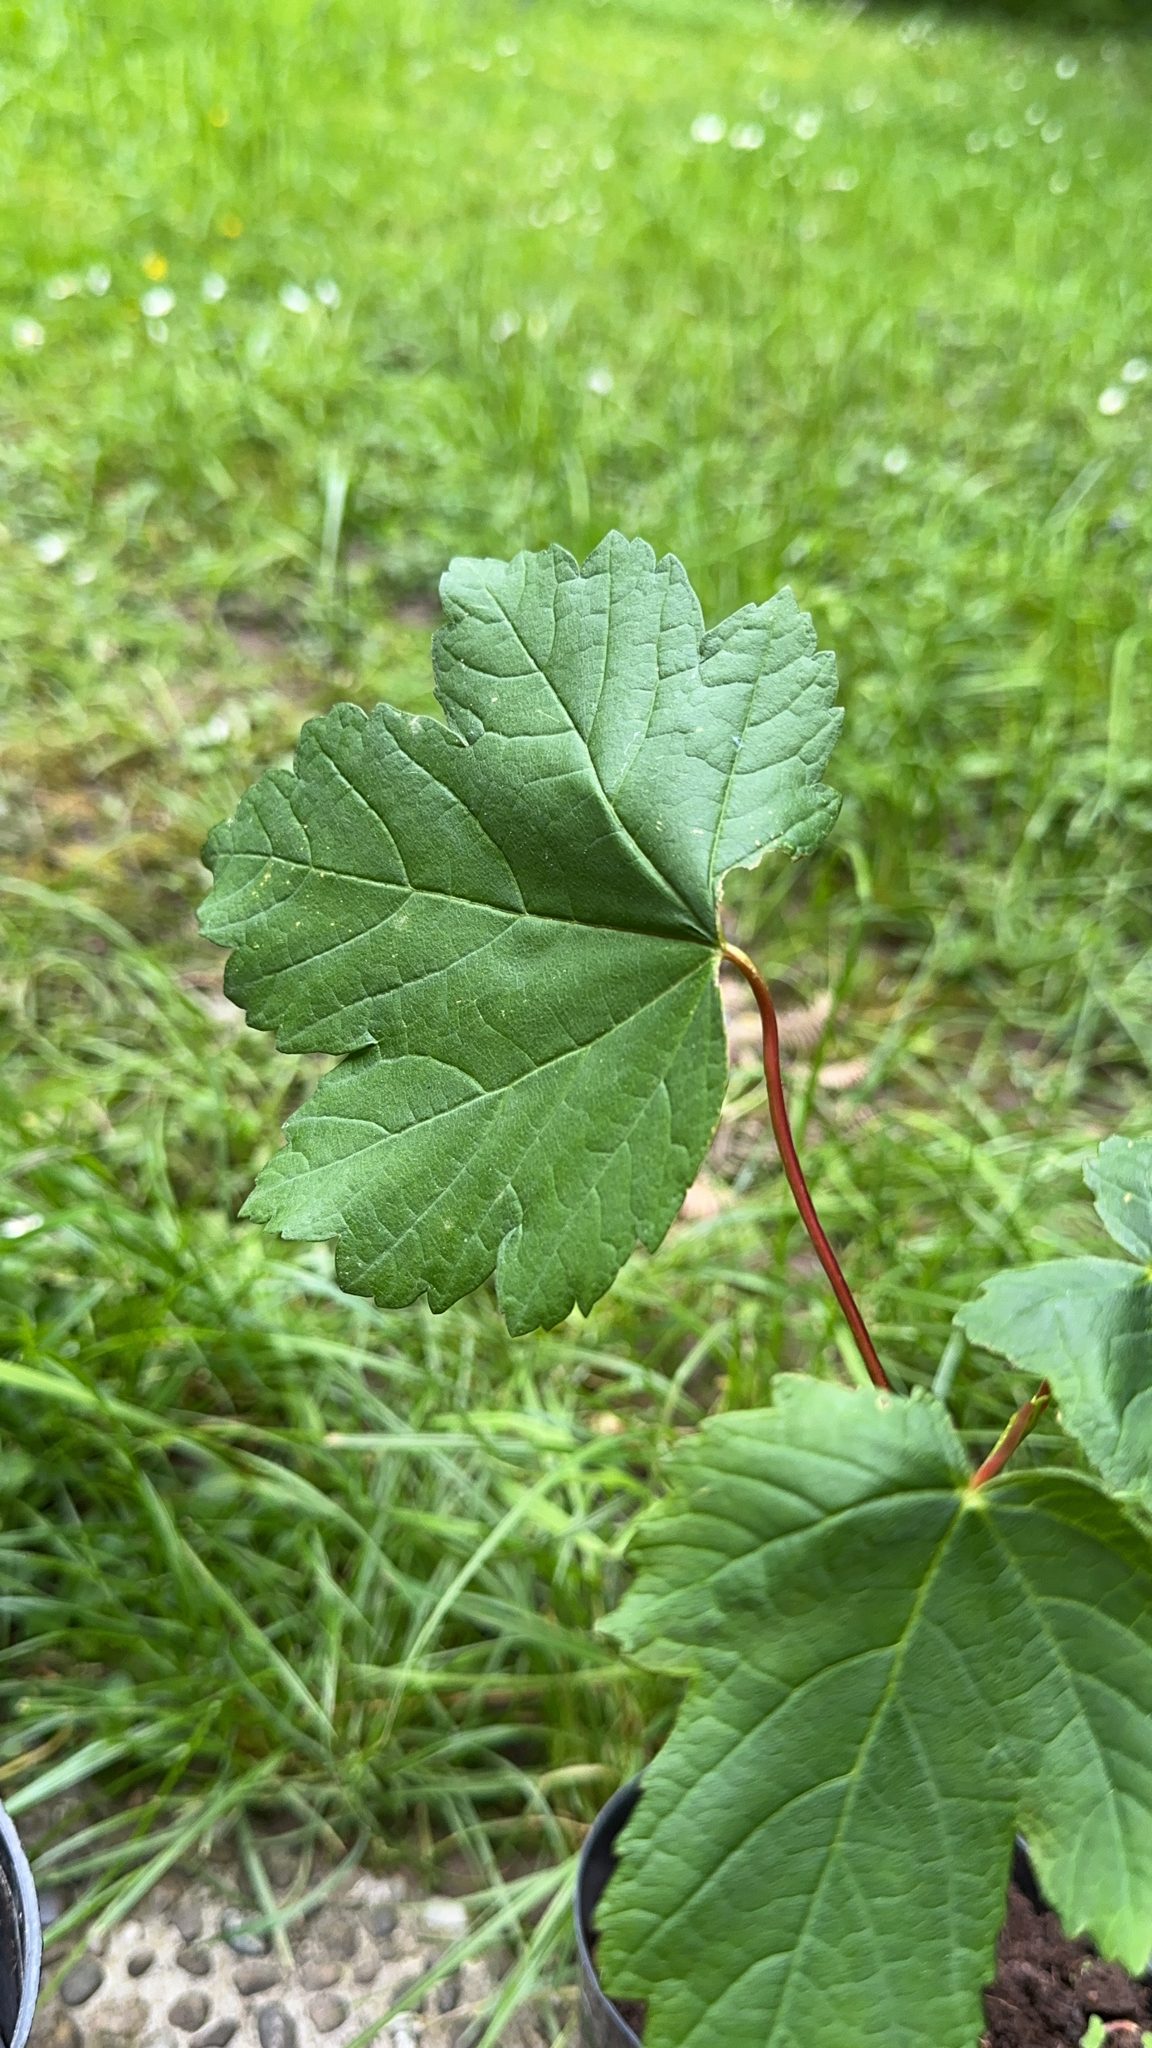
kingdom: Plantae
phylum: Tracheophyta
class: Magnoliopsida
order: Sapindales
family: Sapindaceae
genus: Acer
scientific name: Acer pseudoplatanus
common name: Sycamore
